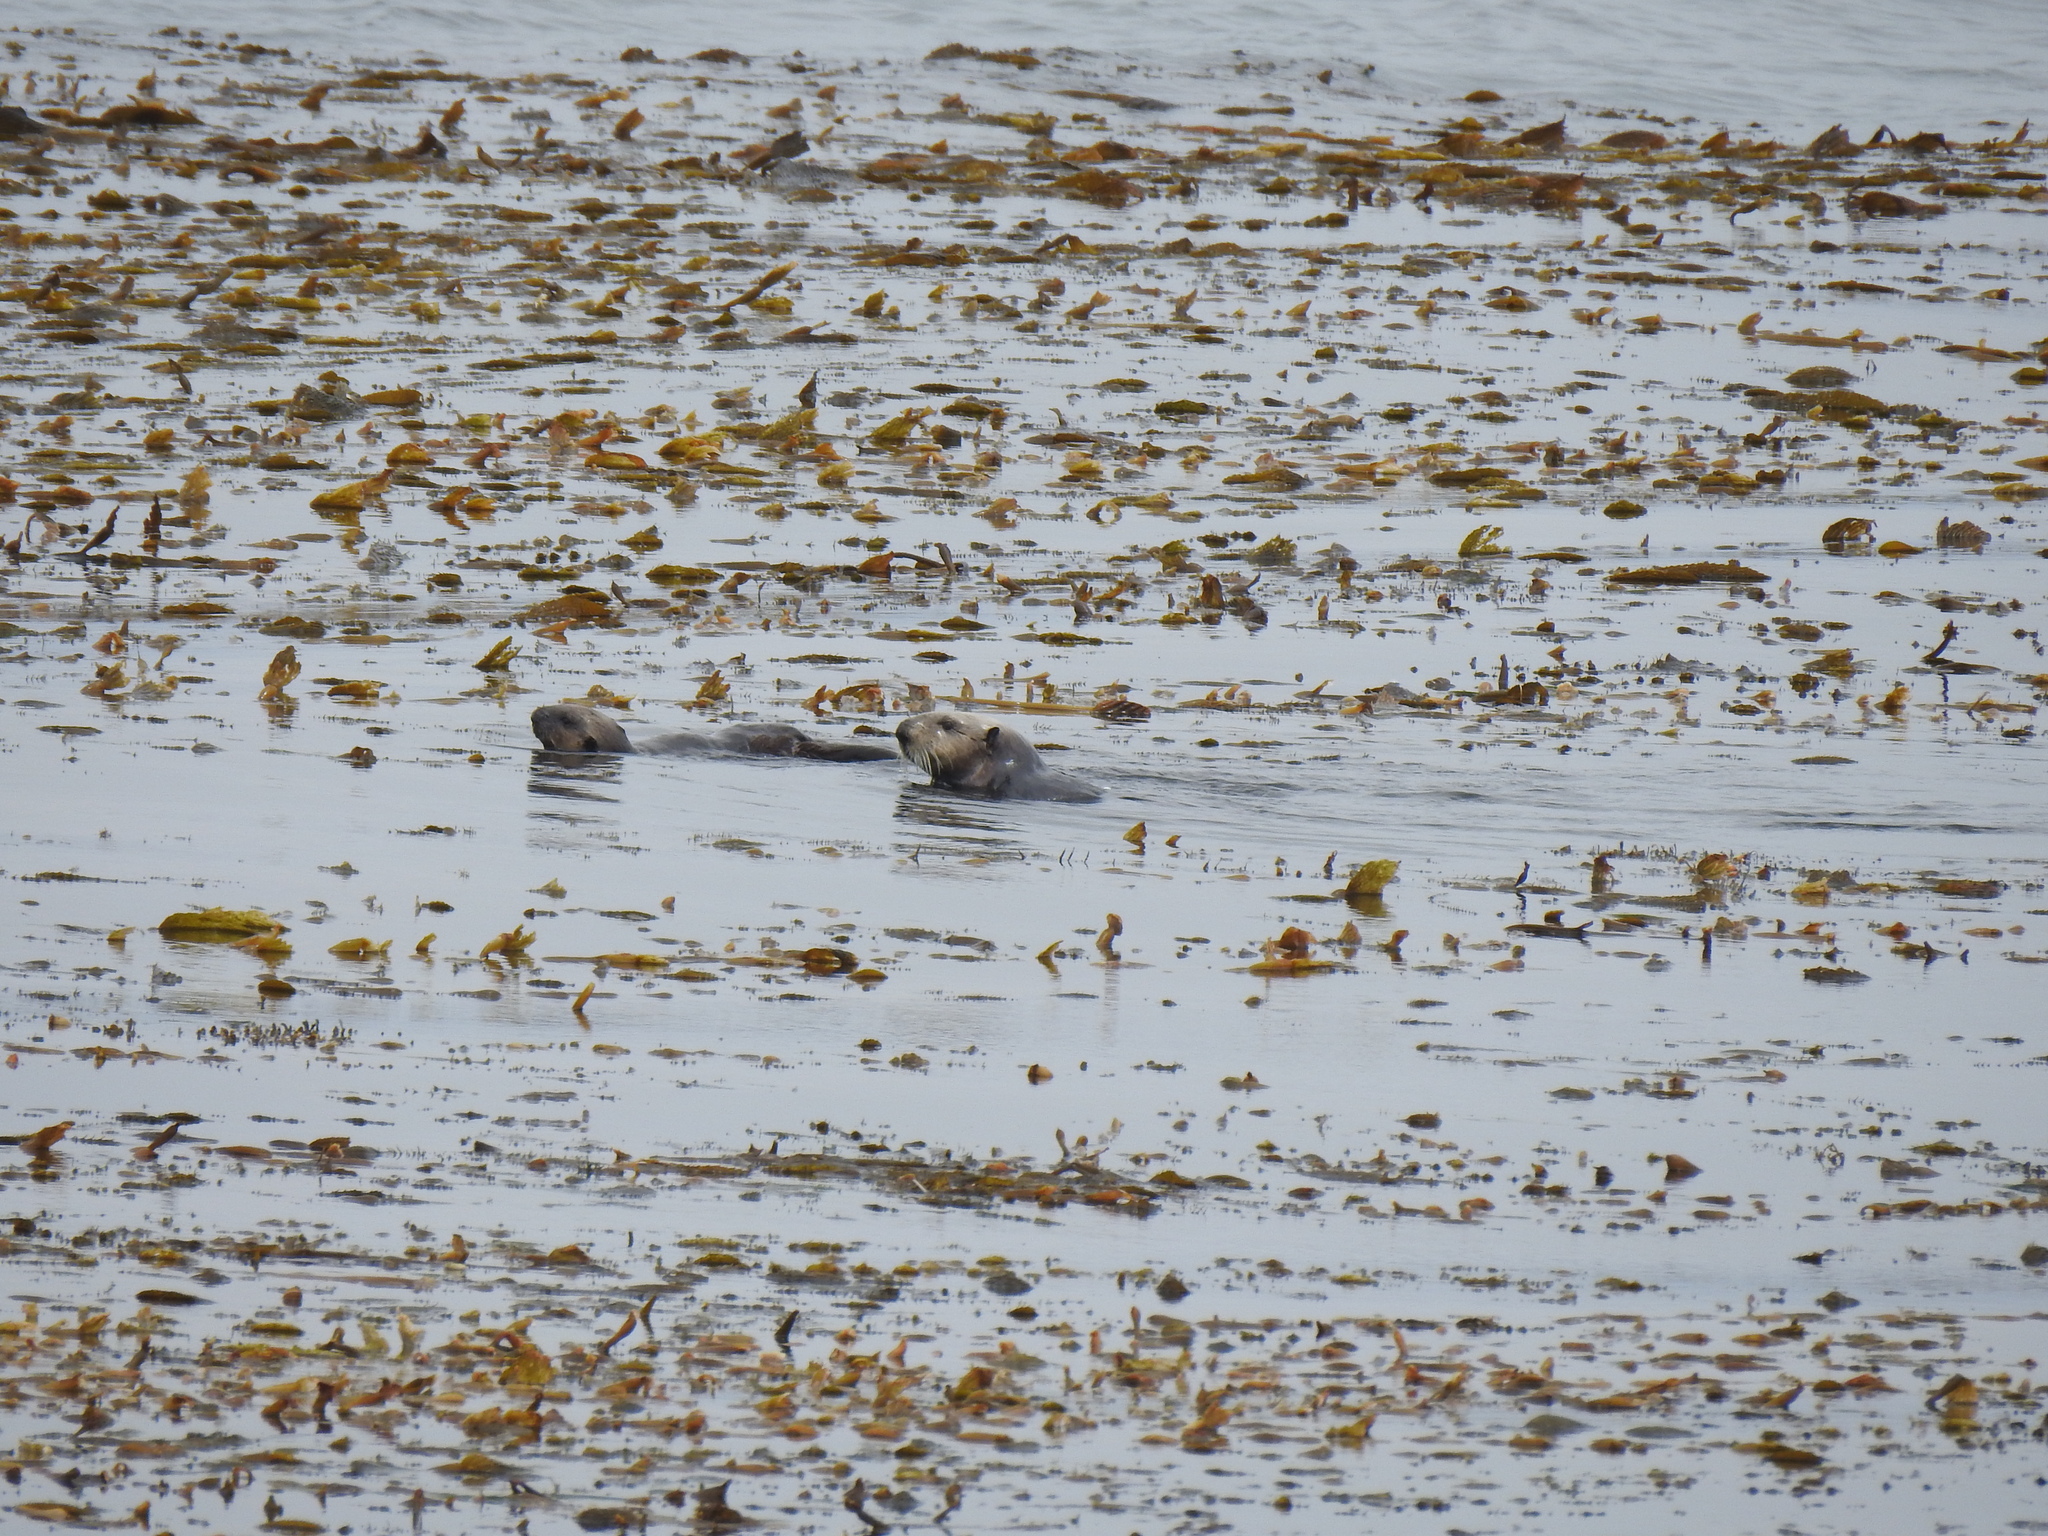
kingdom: Animalia
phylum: Chordata
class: Mammalia
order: Carnivora
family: Mustelidae
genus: Enhydra
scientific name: Enhydra lutris
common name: Sea otter
